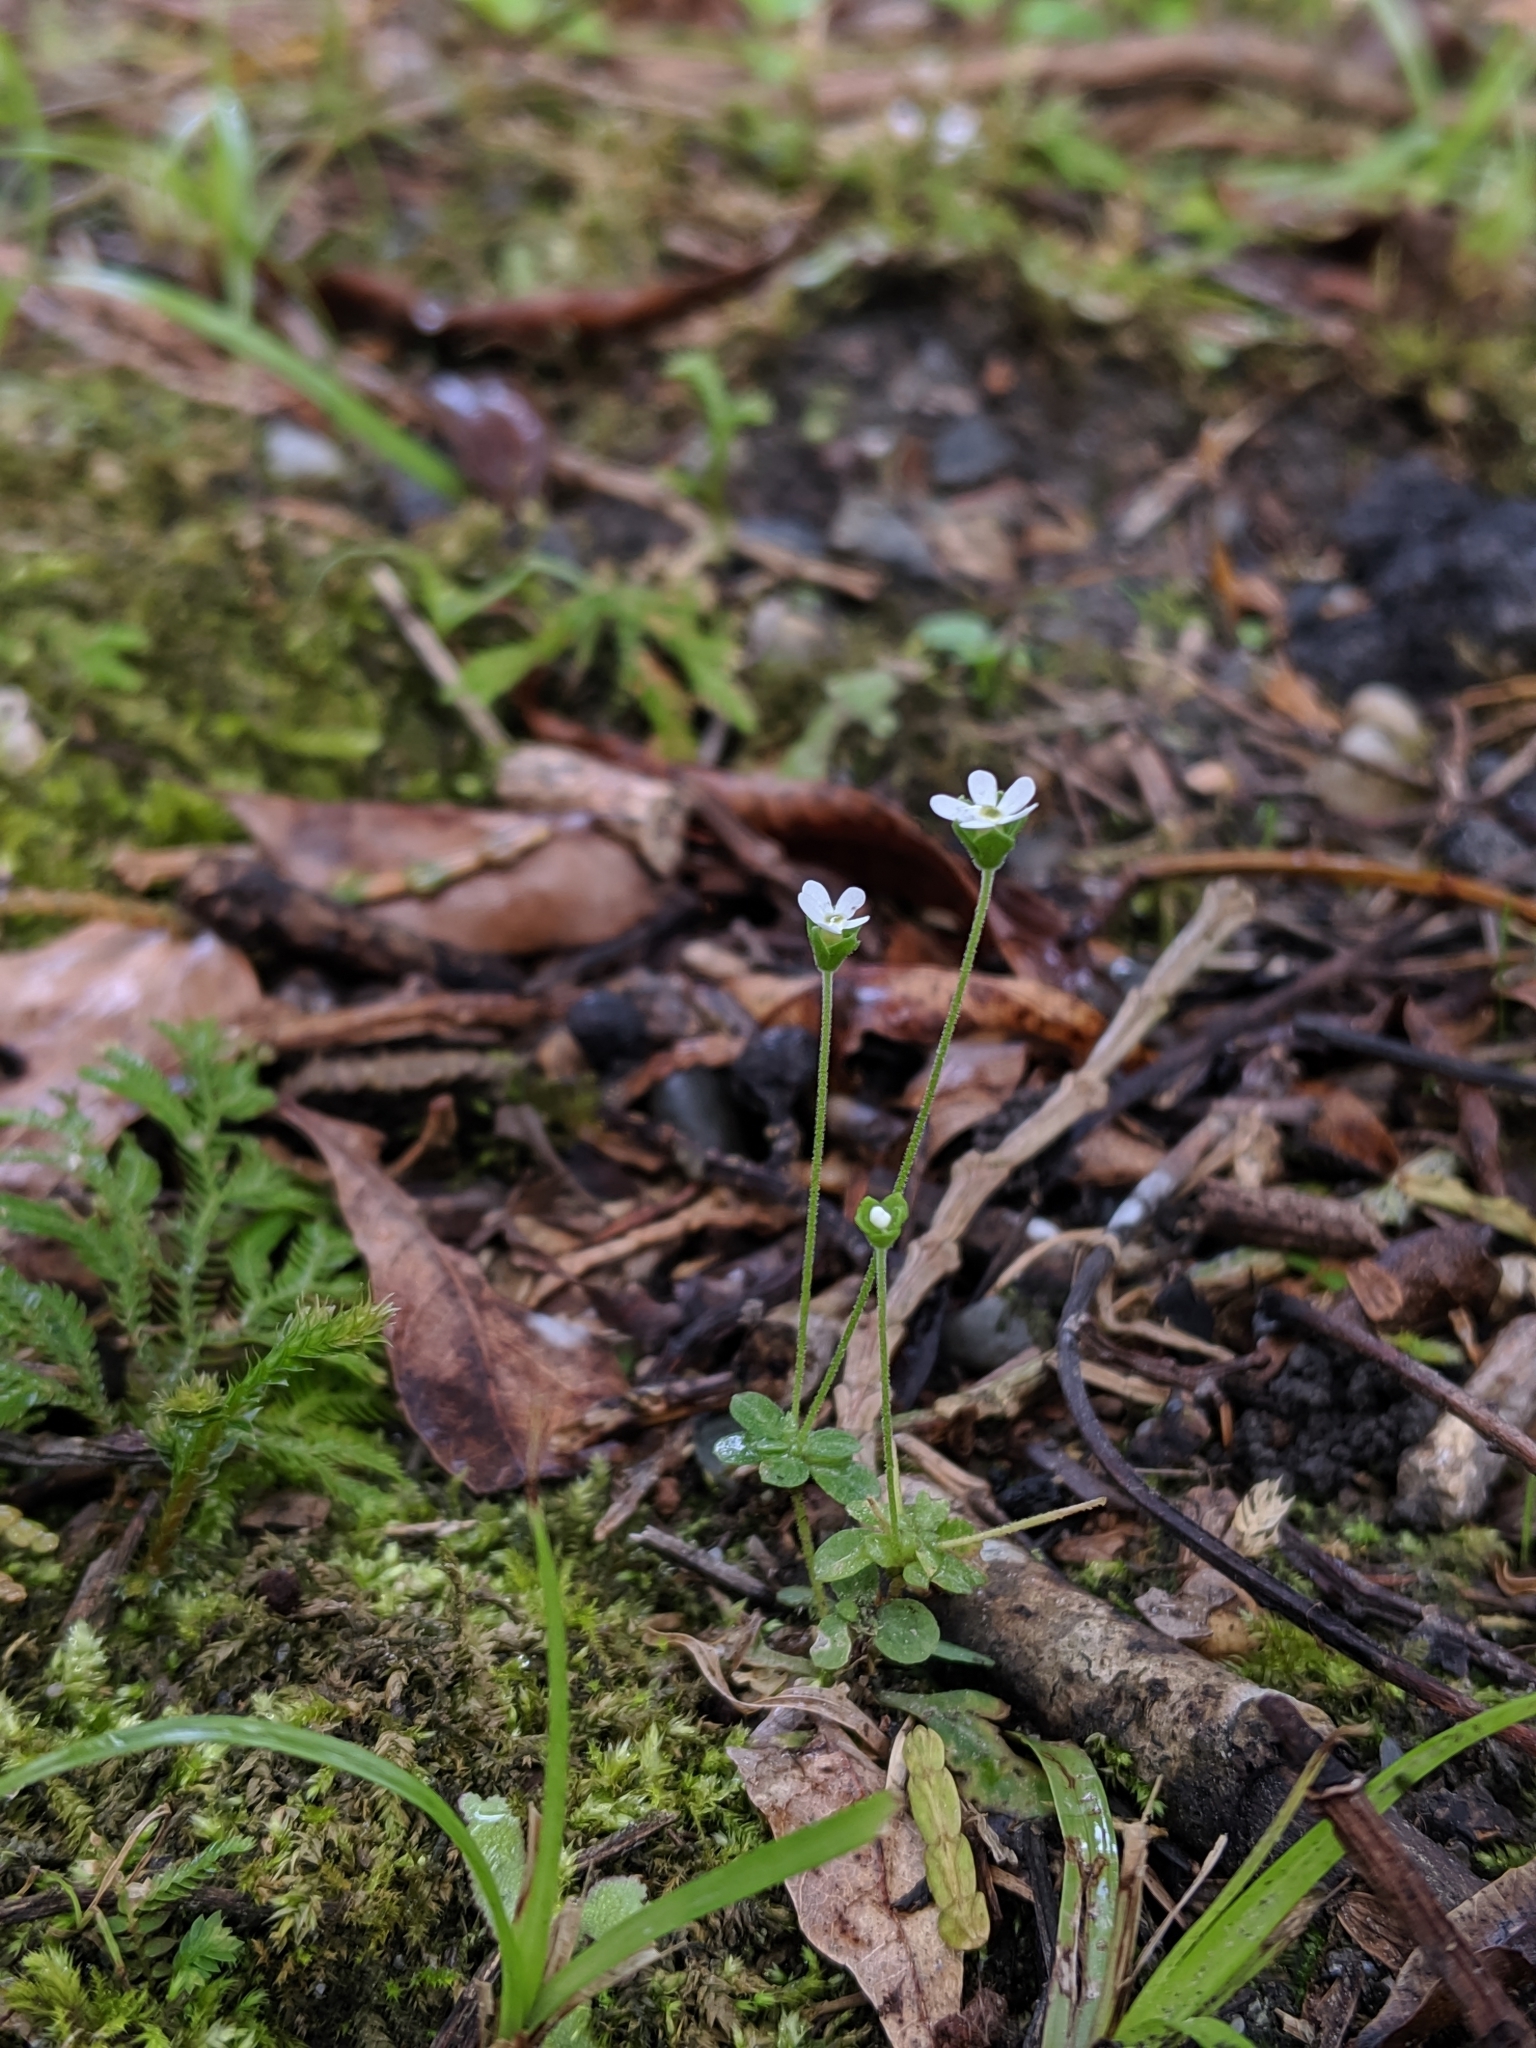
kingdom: Plantae
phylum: Tracheophyta
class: Magnoliopsida
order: Ericales
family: Primulaceae
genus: Androsace
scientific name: Androsace umbellata
